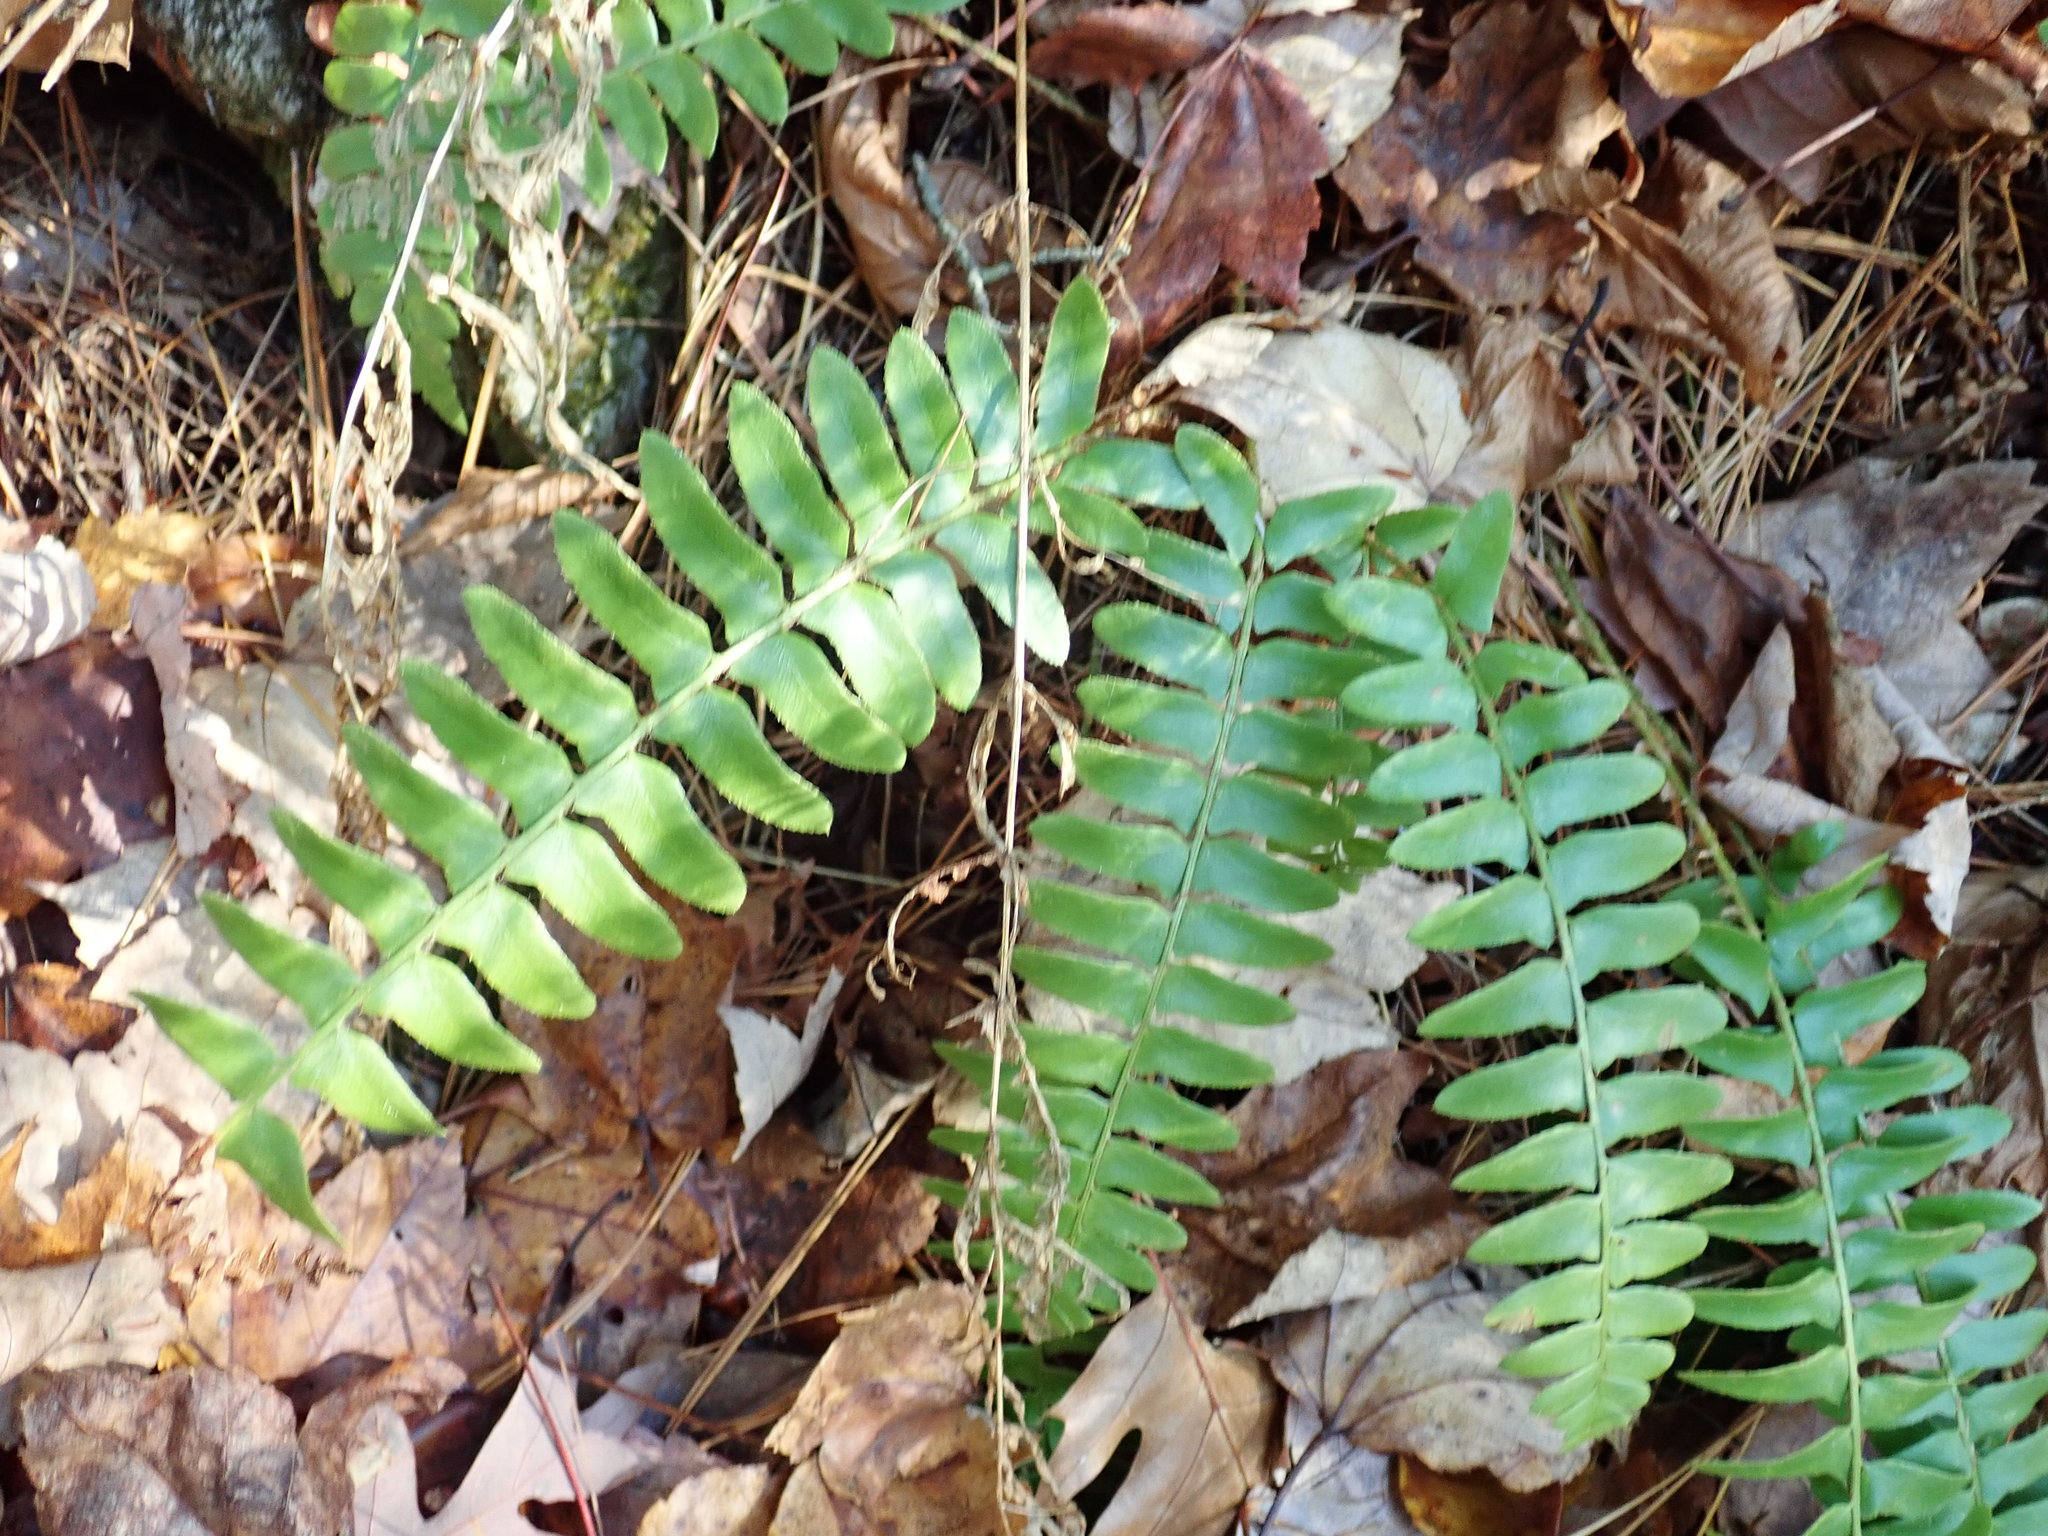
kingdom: Plantae
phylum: Tracheophyta
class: Polypodiopsida
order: Polypodiales
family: Dryopteridaceae
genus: Polystichum
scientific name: Polystichum acrostichoides
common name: Christmas fern
